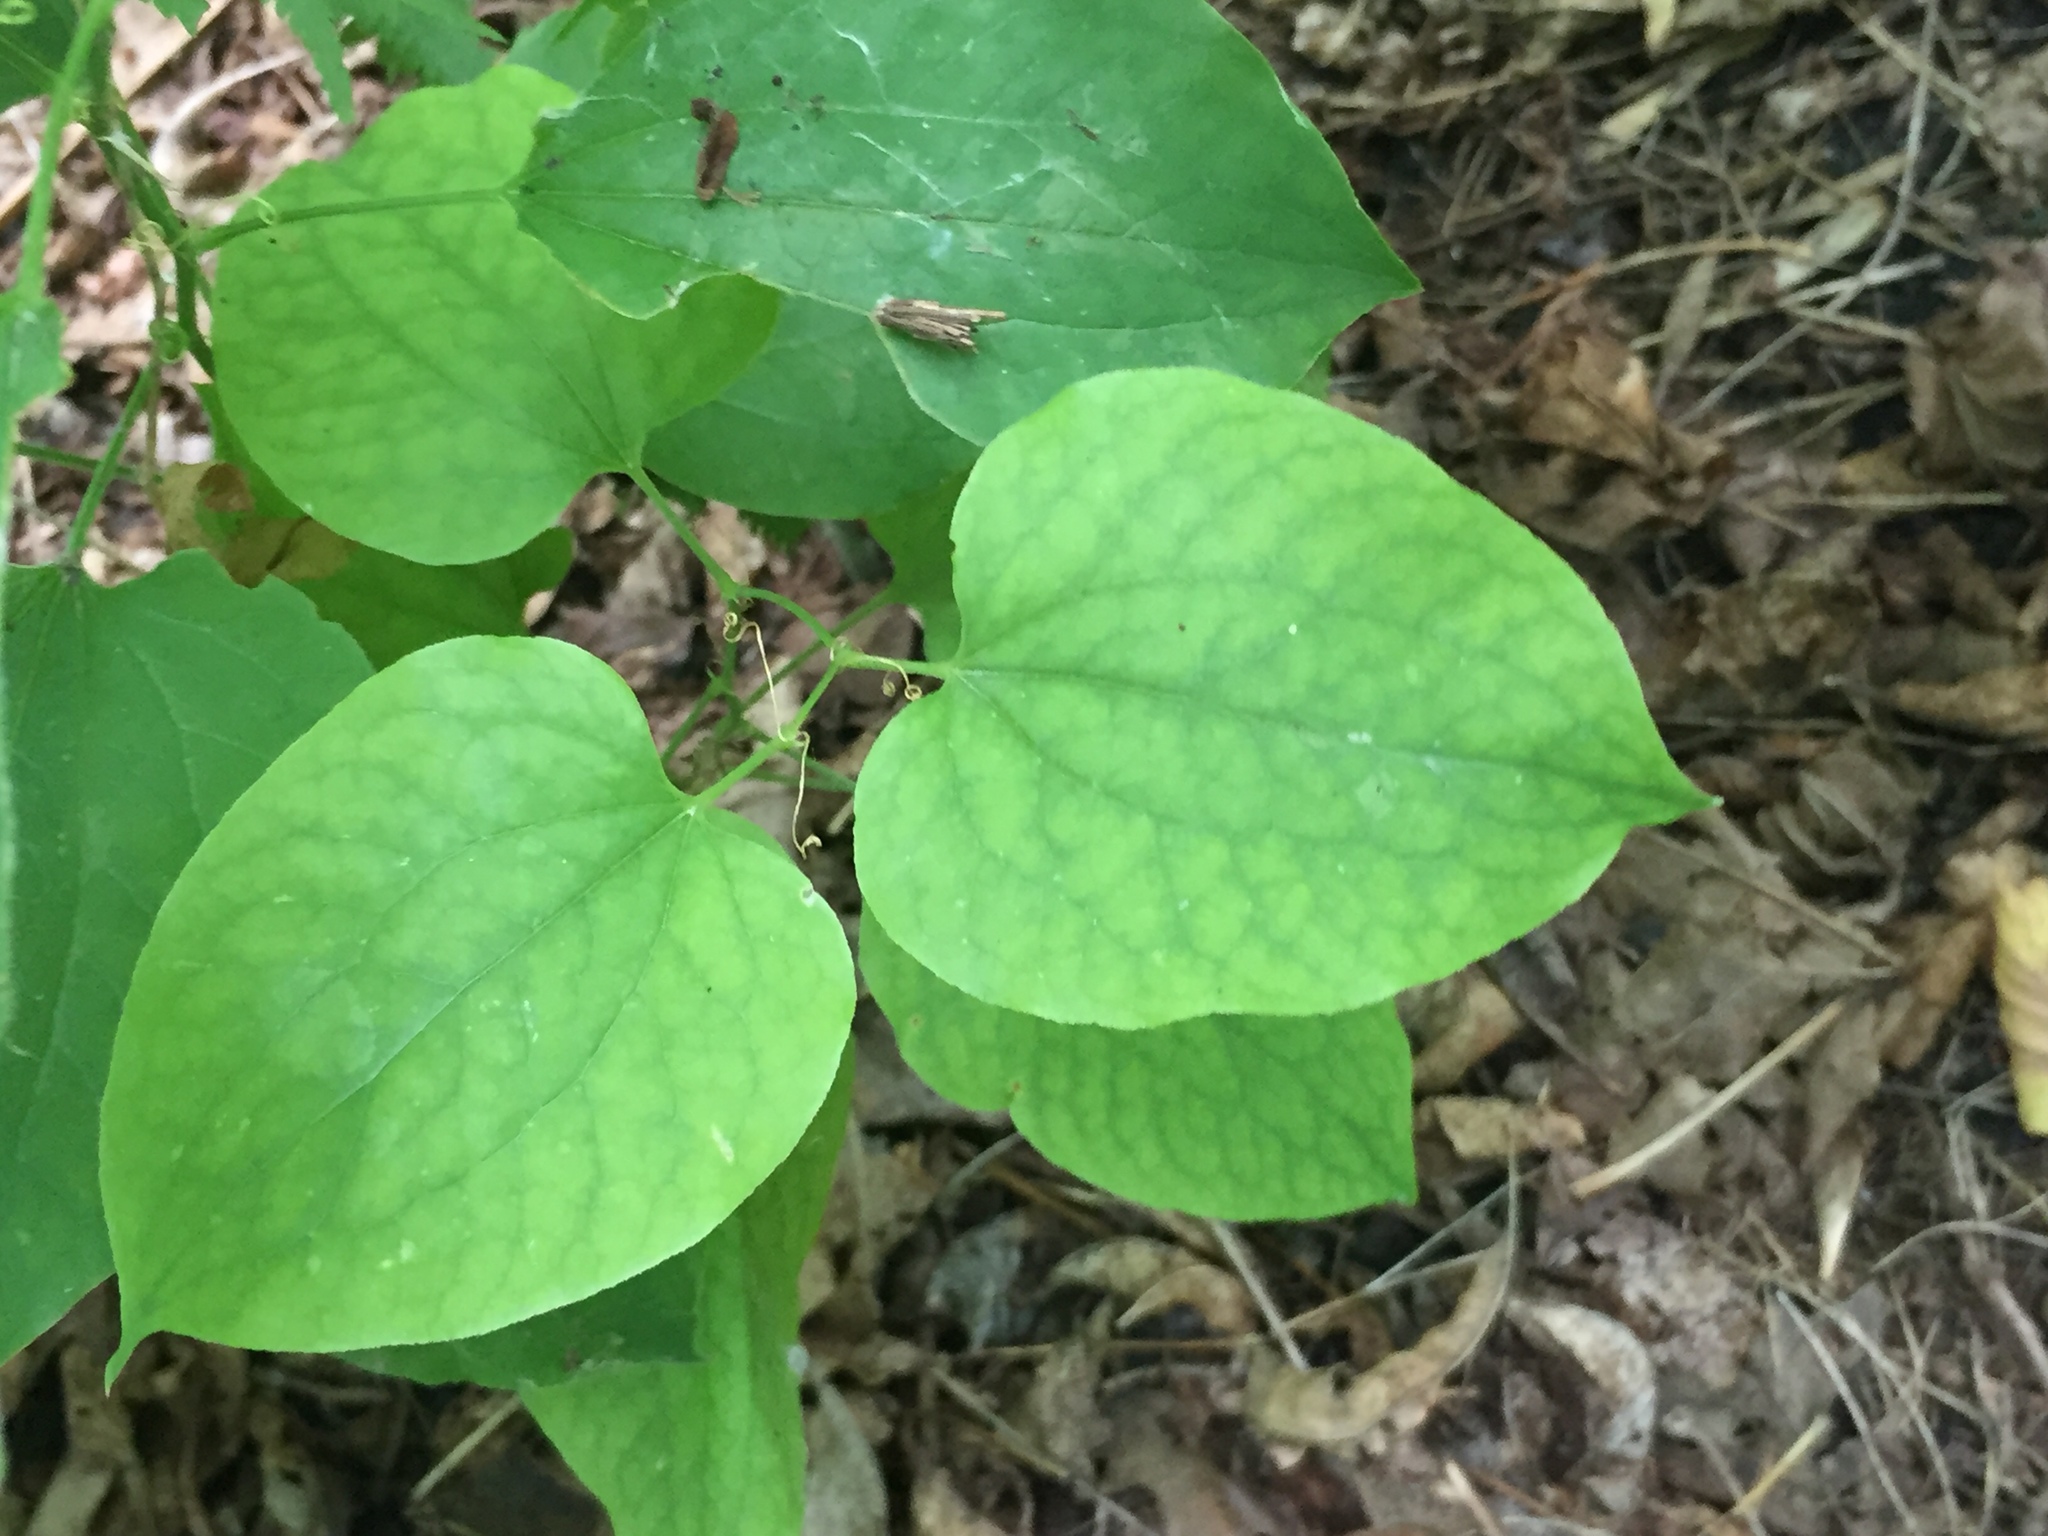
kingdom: Plantae
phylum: Tracheophyta
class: Liliopsida
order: Liliales
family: Smilacaceae
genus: Smilax
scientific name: Smilax lasioneura
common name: Blue ridge carrionflower
